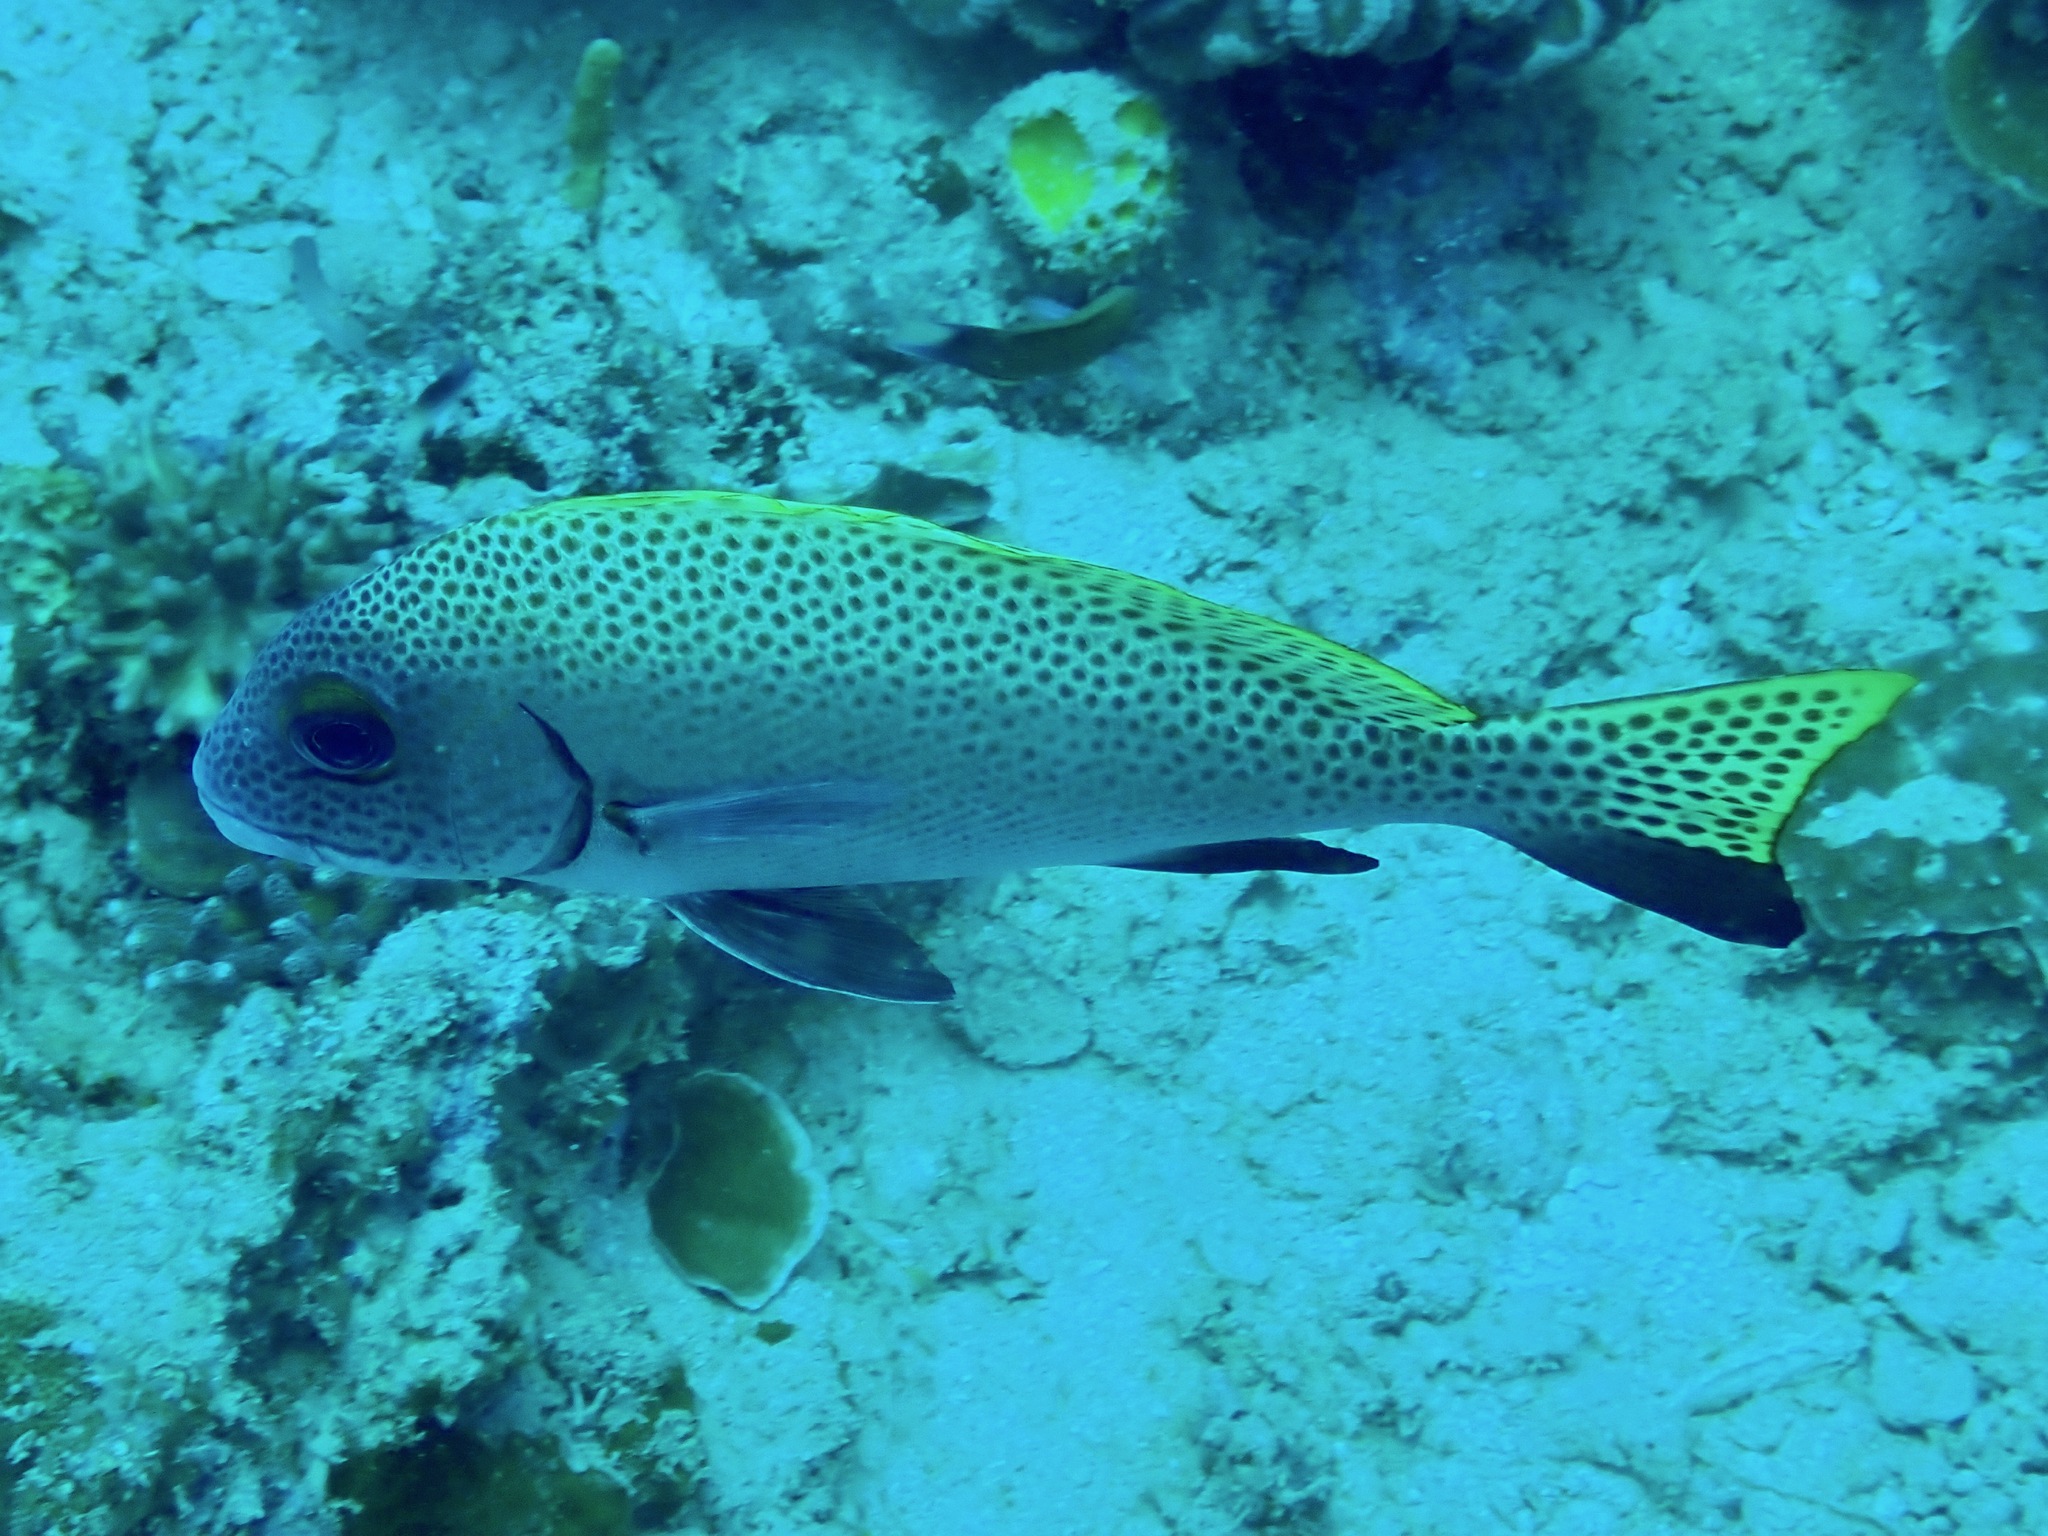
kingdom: Animalia
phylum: Chordata
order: Perciformes
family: Haemulidae
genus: Diagramma
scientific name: Diagramma melanacrum
